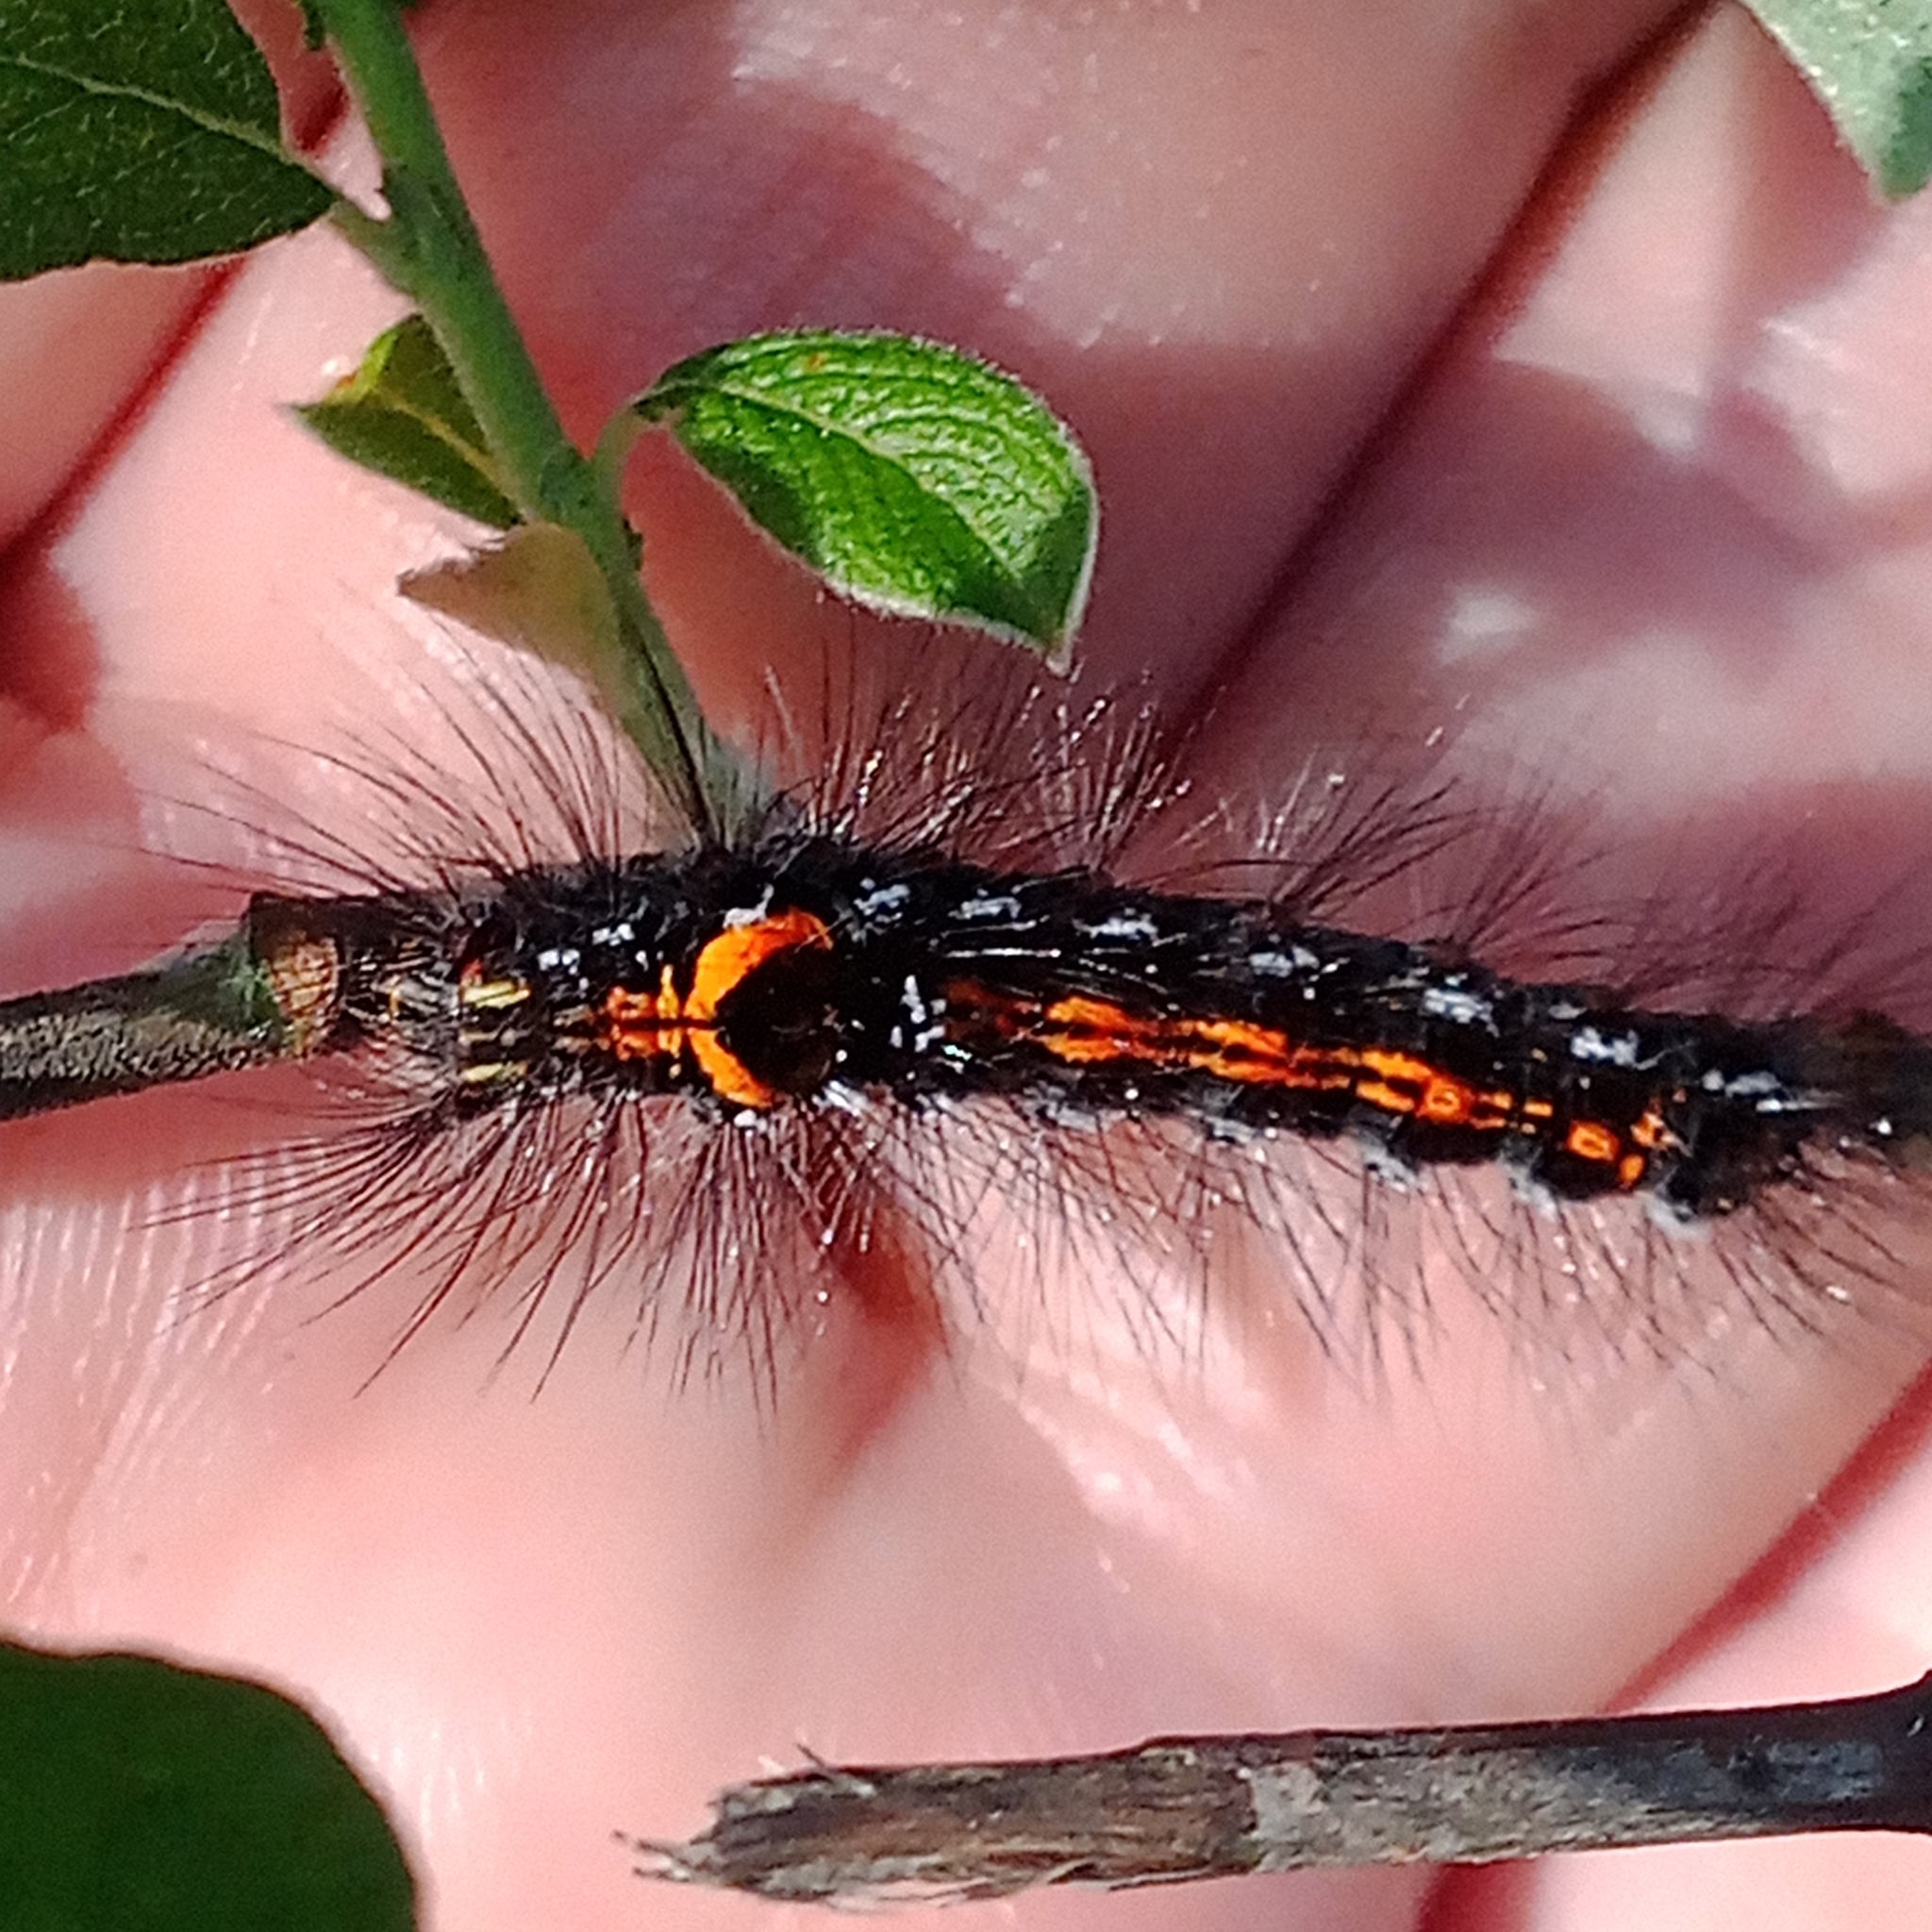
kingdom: Animalia
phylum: Arthropoda
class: Insecta
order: Lepidoptera
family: Erebidae
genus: Sphrageidus
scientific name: Sphrageidus similis
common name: Yellow-tail
